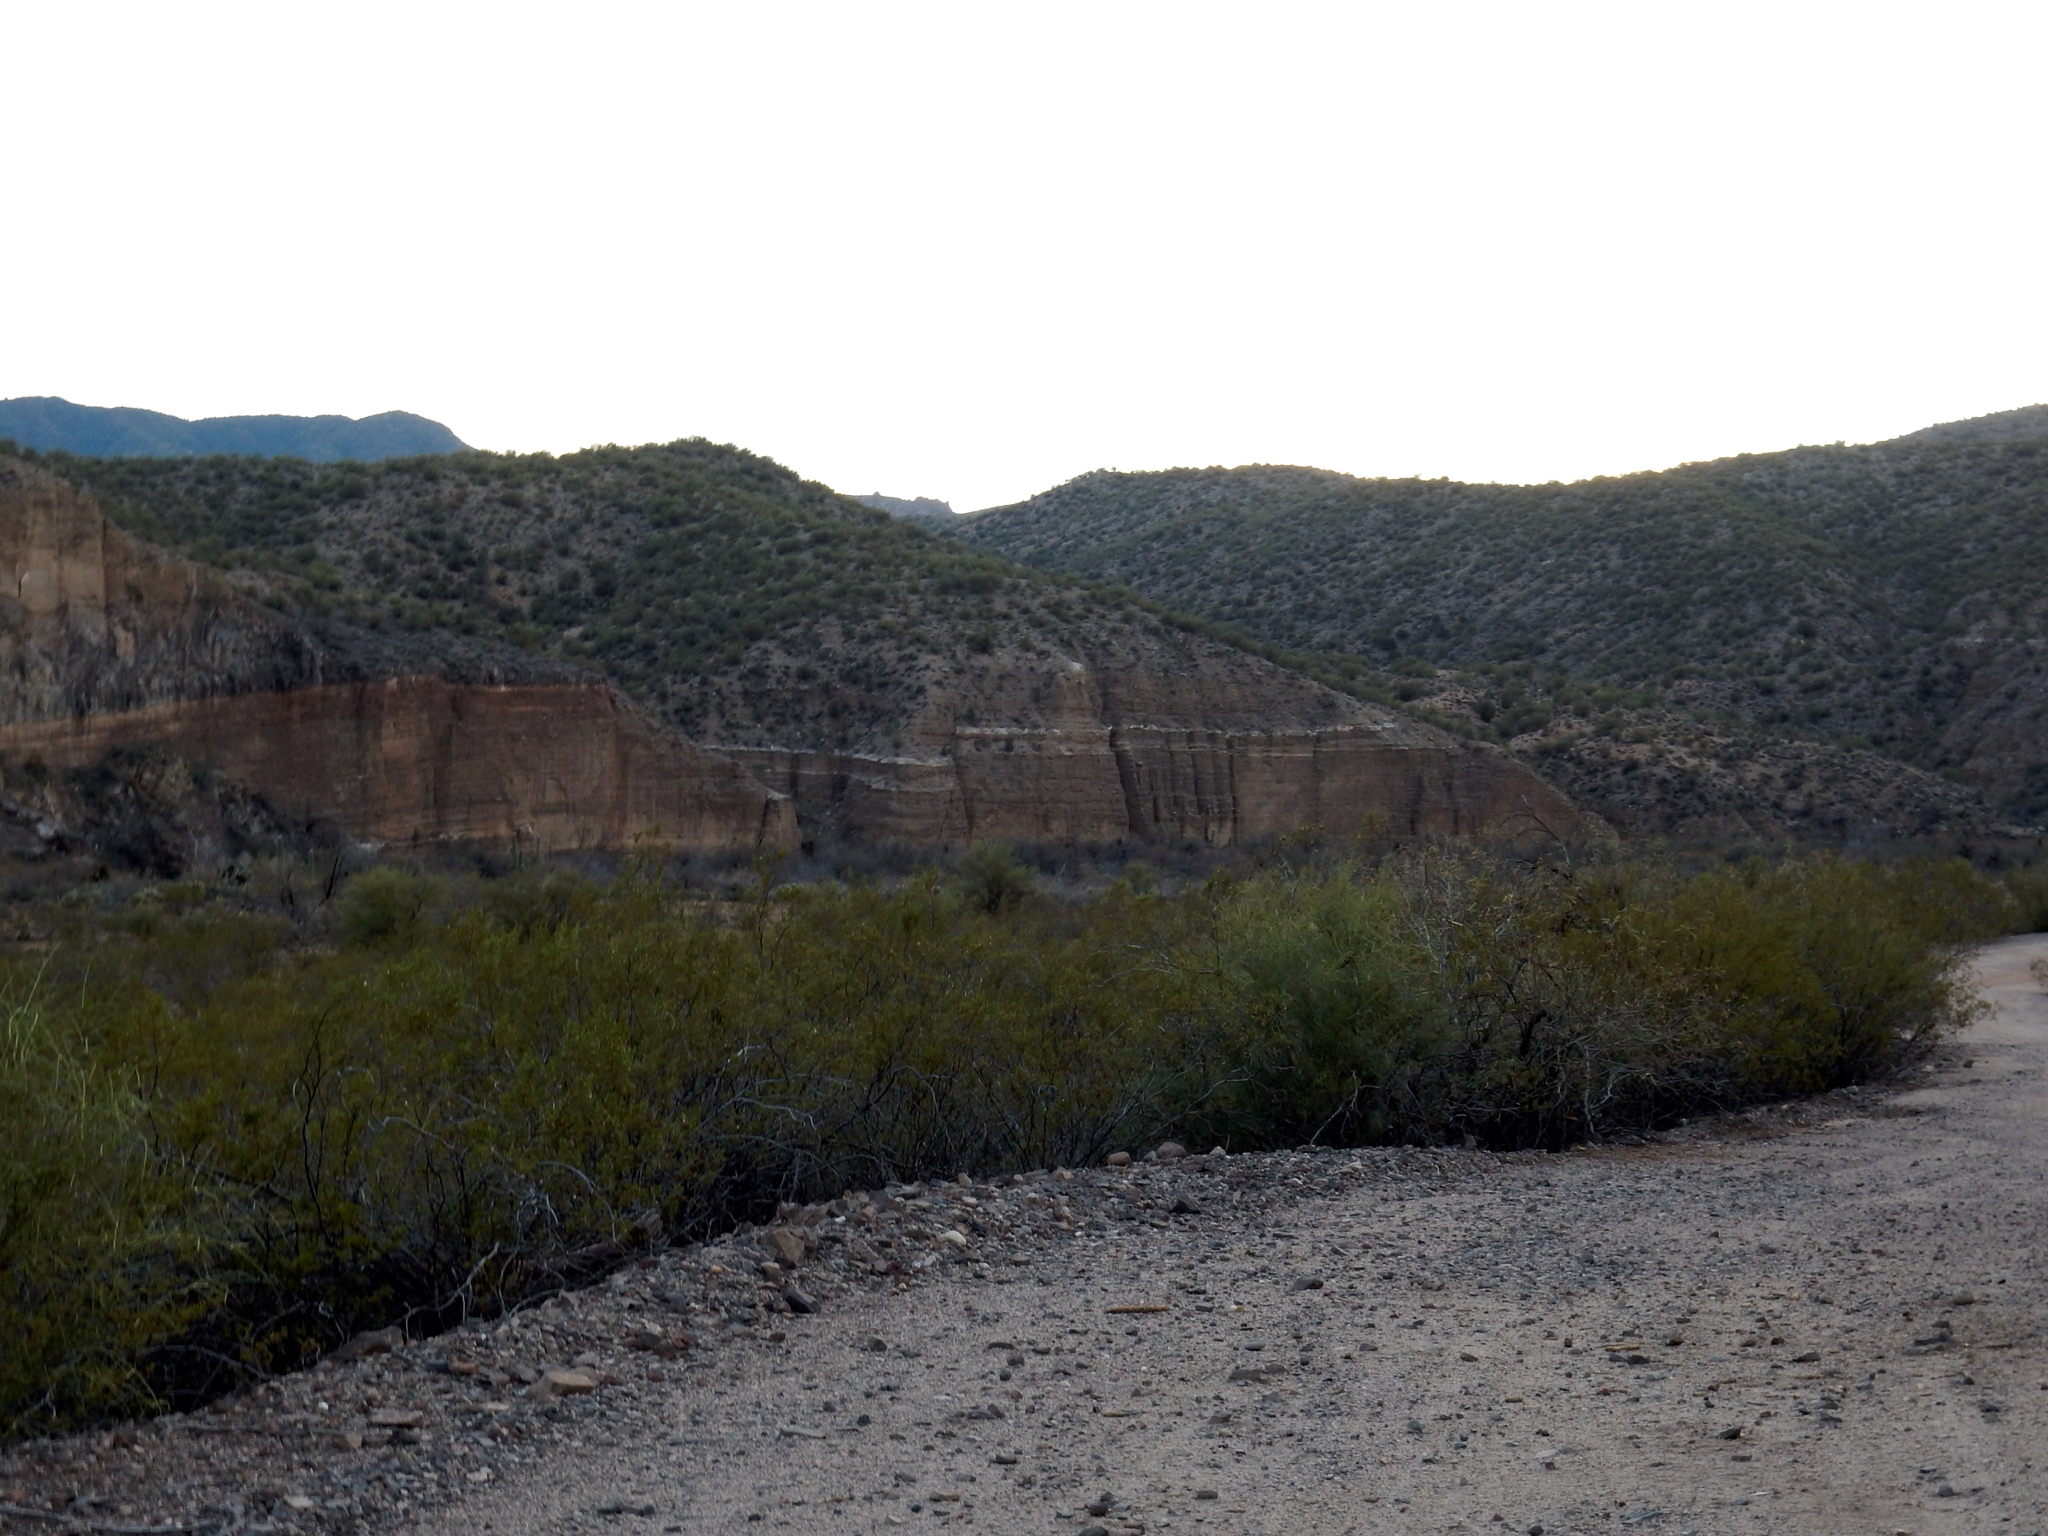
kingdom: Plantae
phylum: Tracheophyta
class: Magnoliopsida
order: Zygophyllales
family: Zygophyllaceae
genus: Larrea
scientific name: Larrea tridentata
